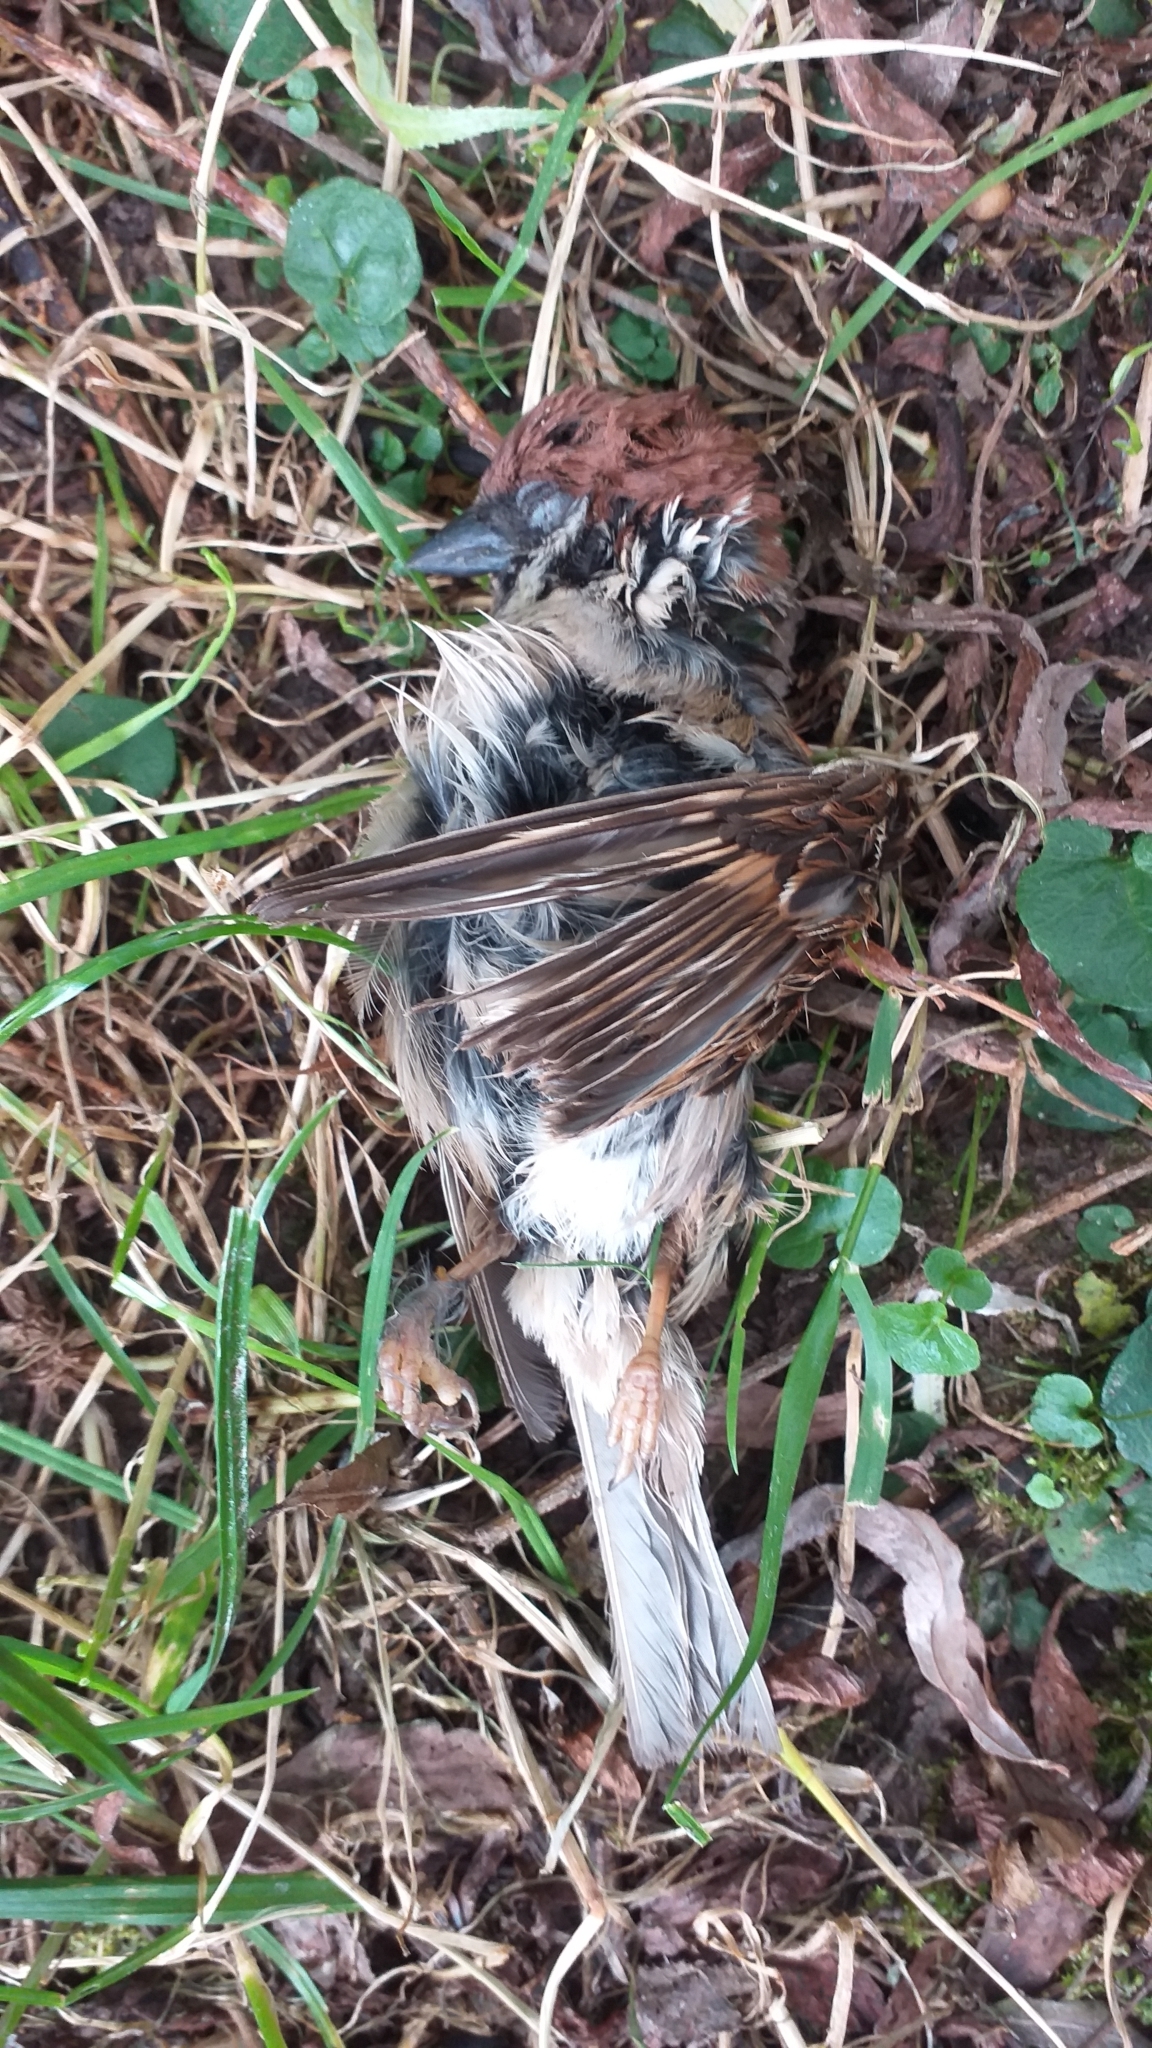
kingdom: Animalia
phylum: Chordata
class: Aves
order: Passeriformes
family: Passeridae
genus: Passer
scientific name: Passer montanus
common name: Eurasian tree sparrow
